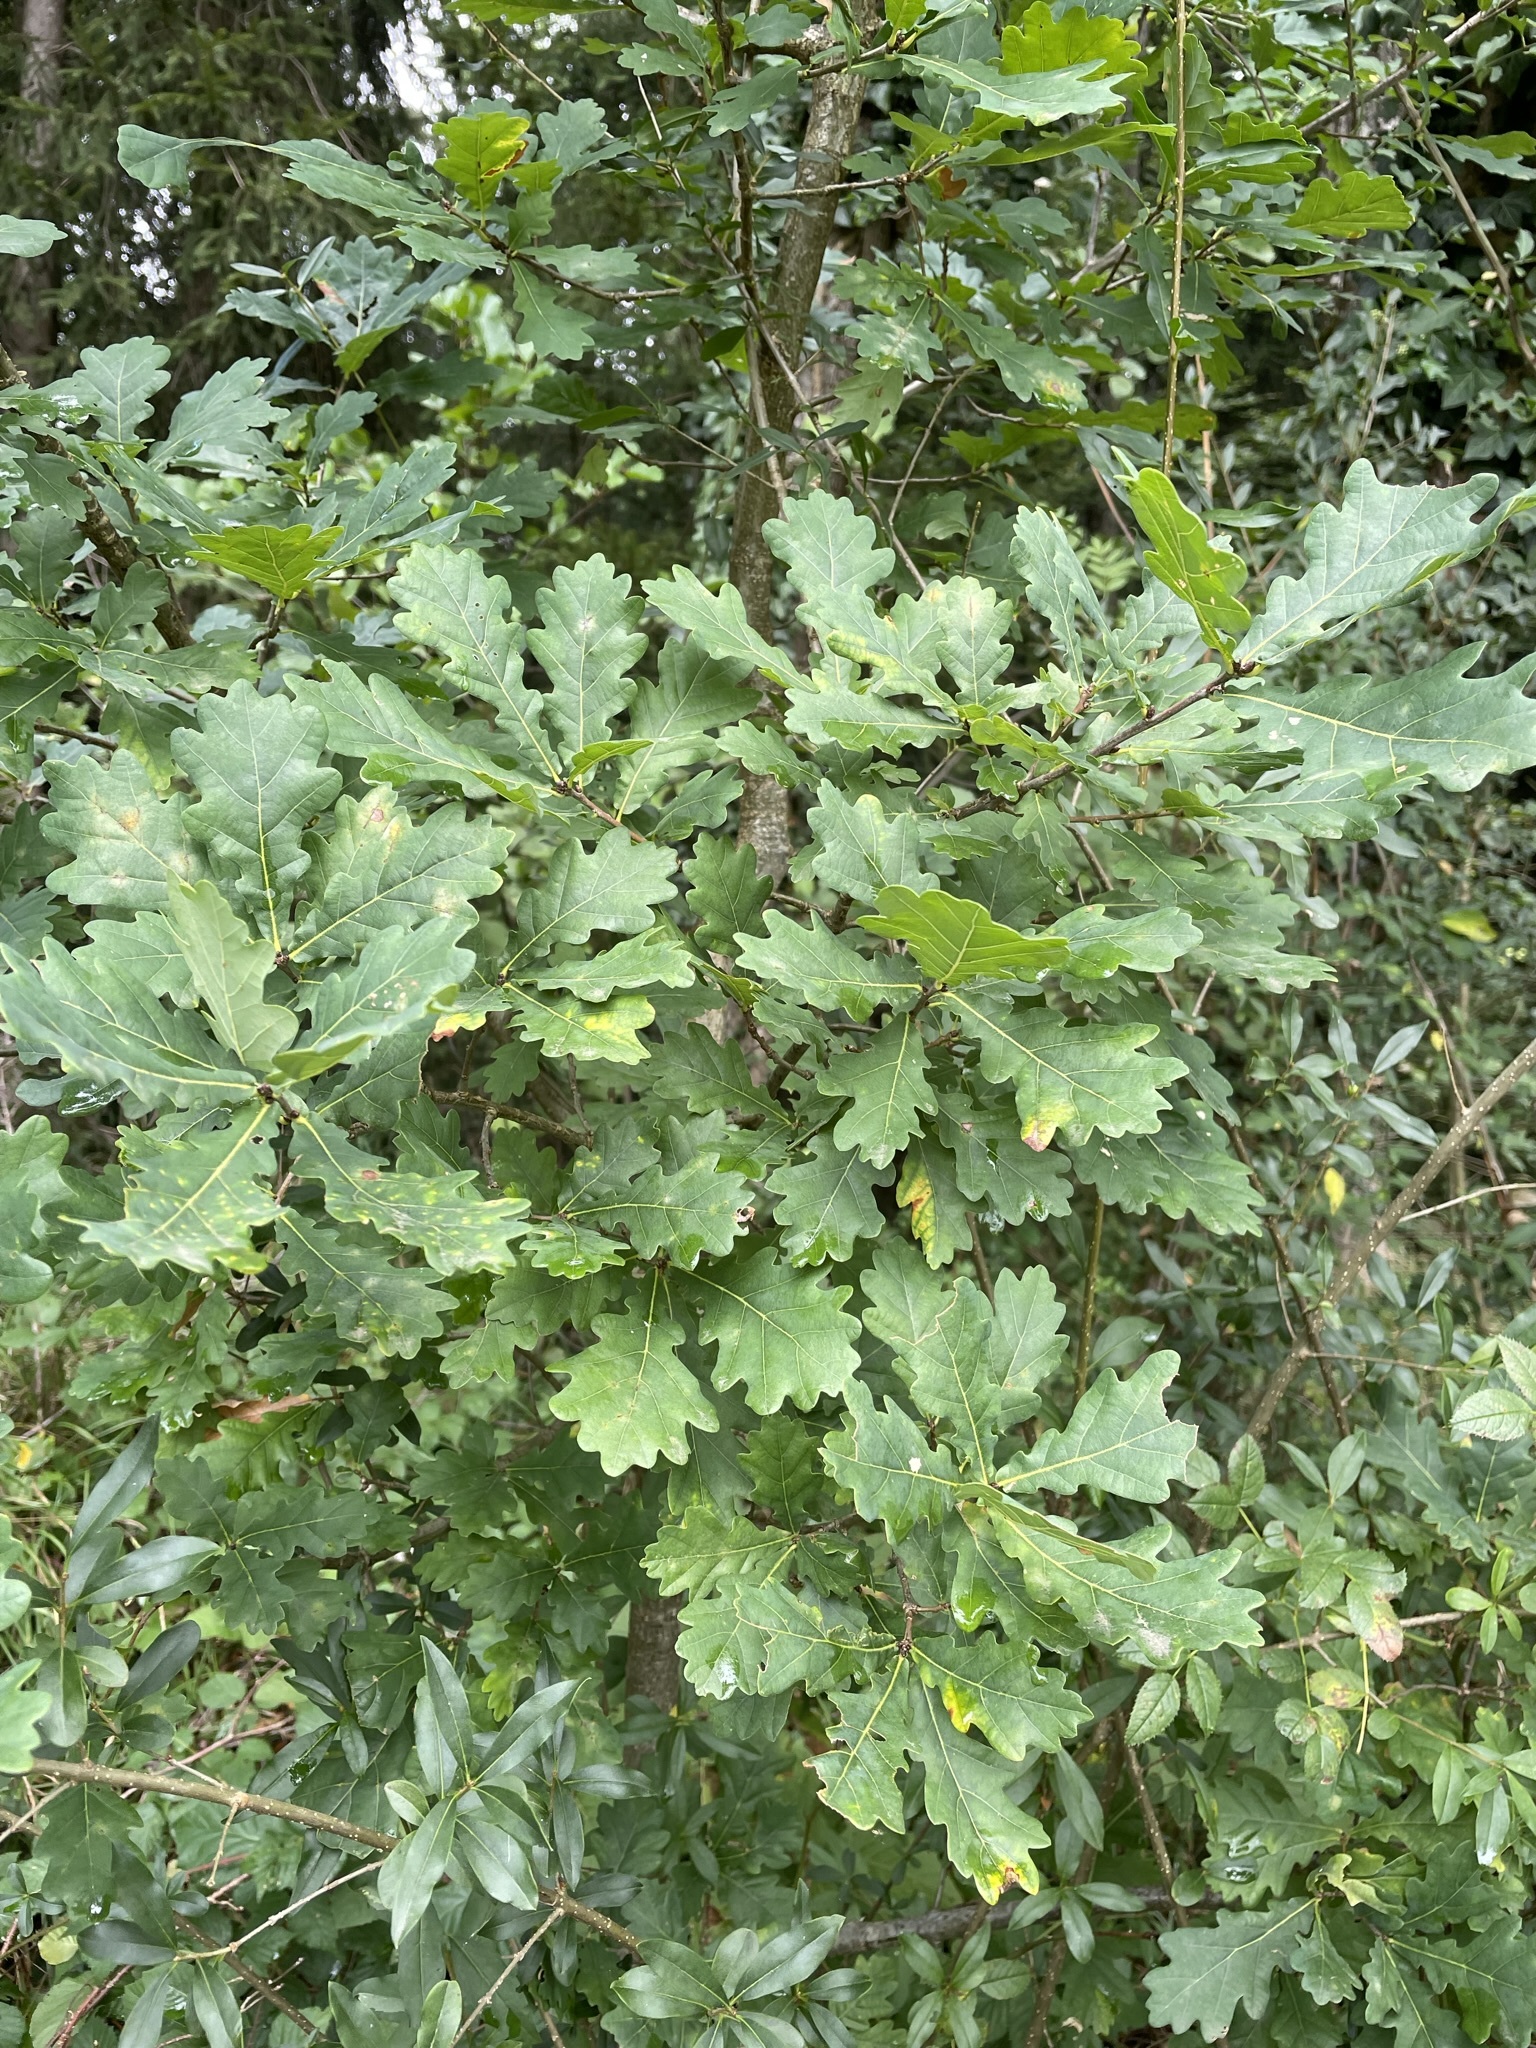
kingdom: Plantae
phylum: Tracheophyta
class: Magnoliopsida
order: Fagales
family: Fagaceae
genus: Quercus
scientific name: Quercus robur
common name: Pedunculate oak
